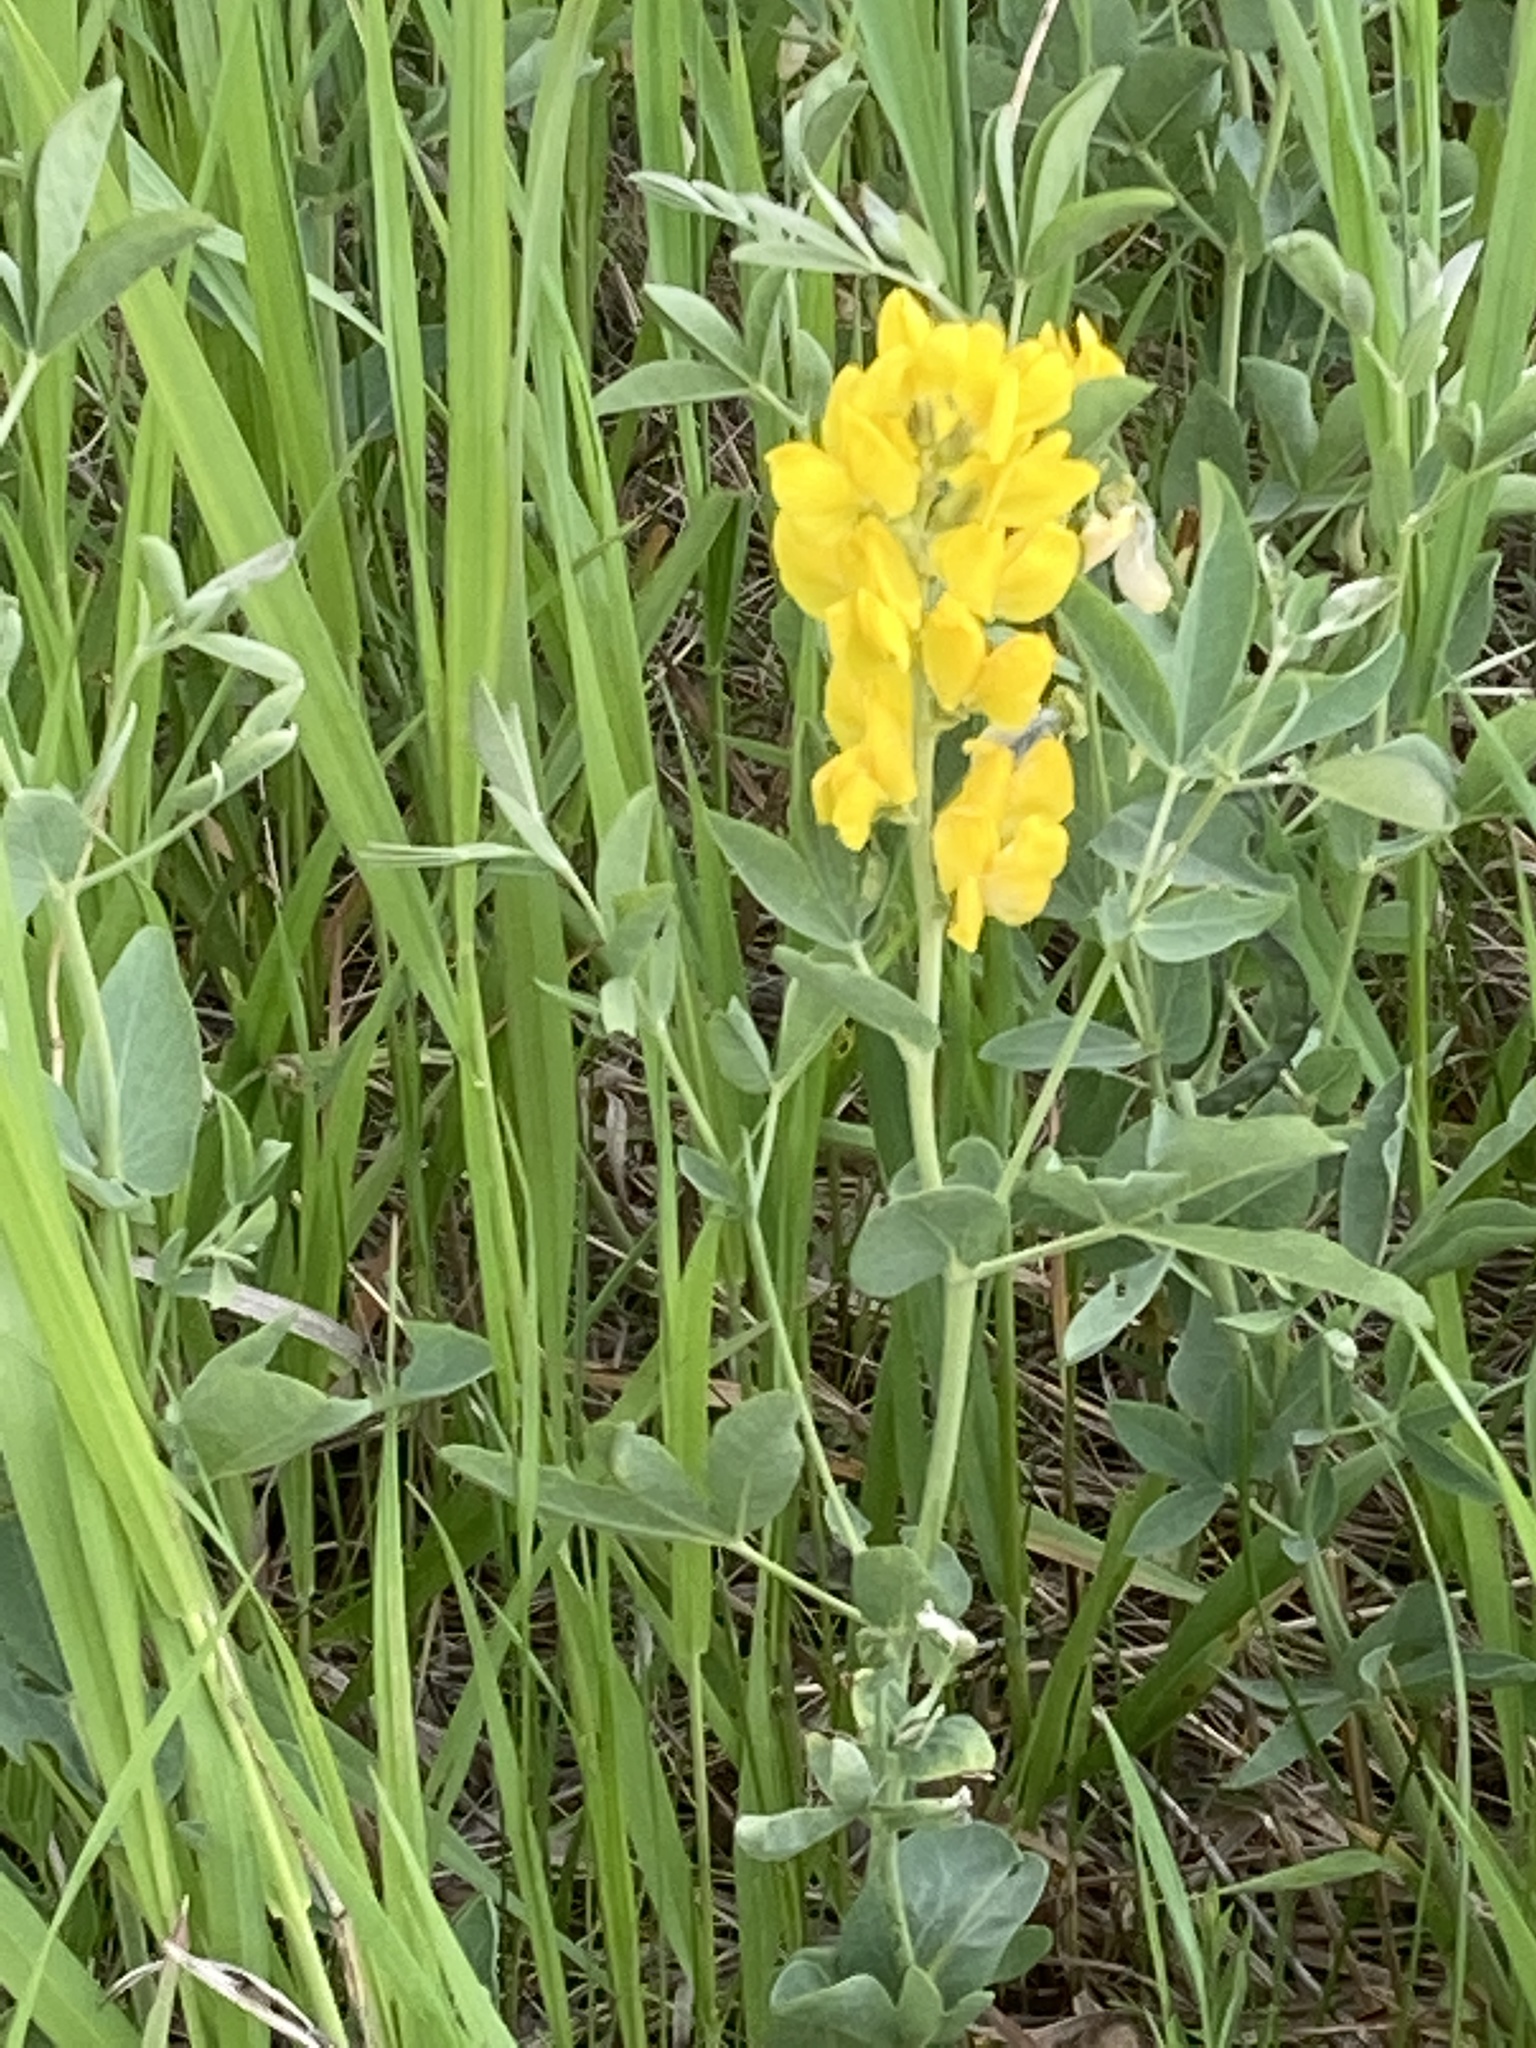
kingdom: Plantae
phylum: Tracheophyta
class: Magnoliopsida
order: Fabales
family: Fabaceae
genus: Thermopsis
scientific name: Thermopsis rhombifolia
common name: Circle-pod-pea
